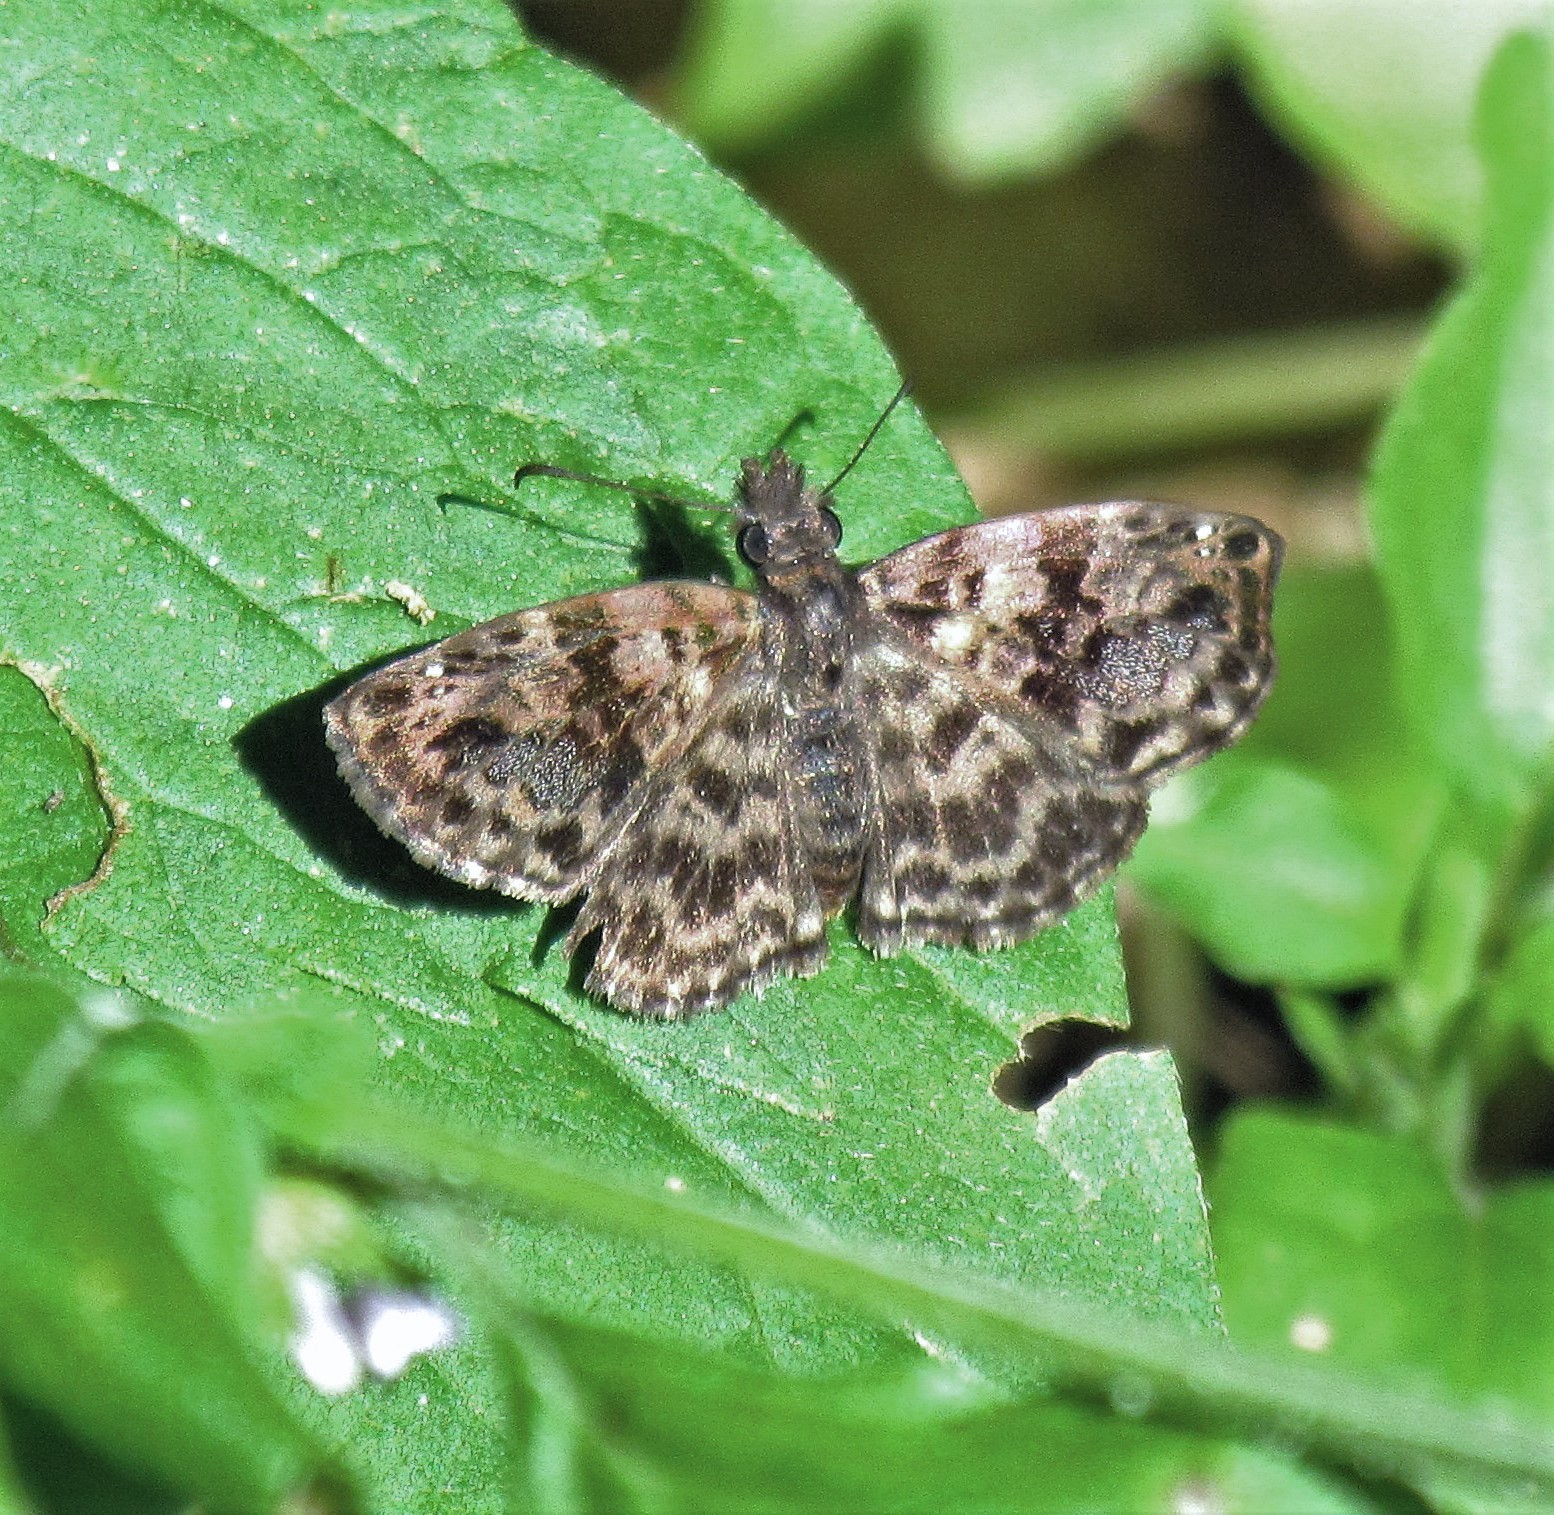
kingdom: Animalia
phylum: Arthropoda
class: Insecta
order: Lepidoptera
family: Hesperiidae
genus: Gorgythion
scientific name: Gorgythion begga
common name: Variegated skipper
